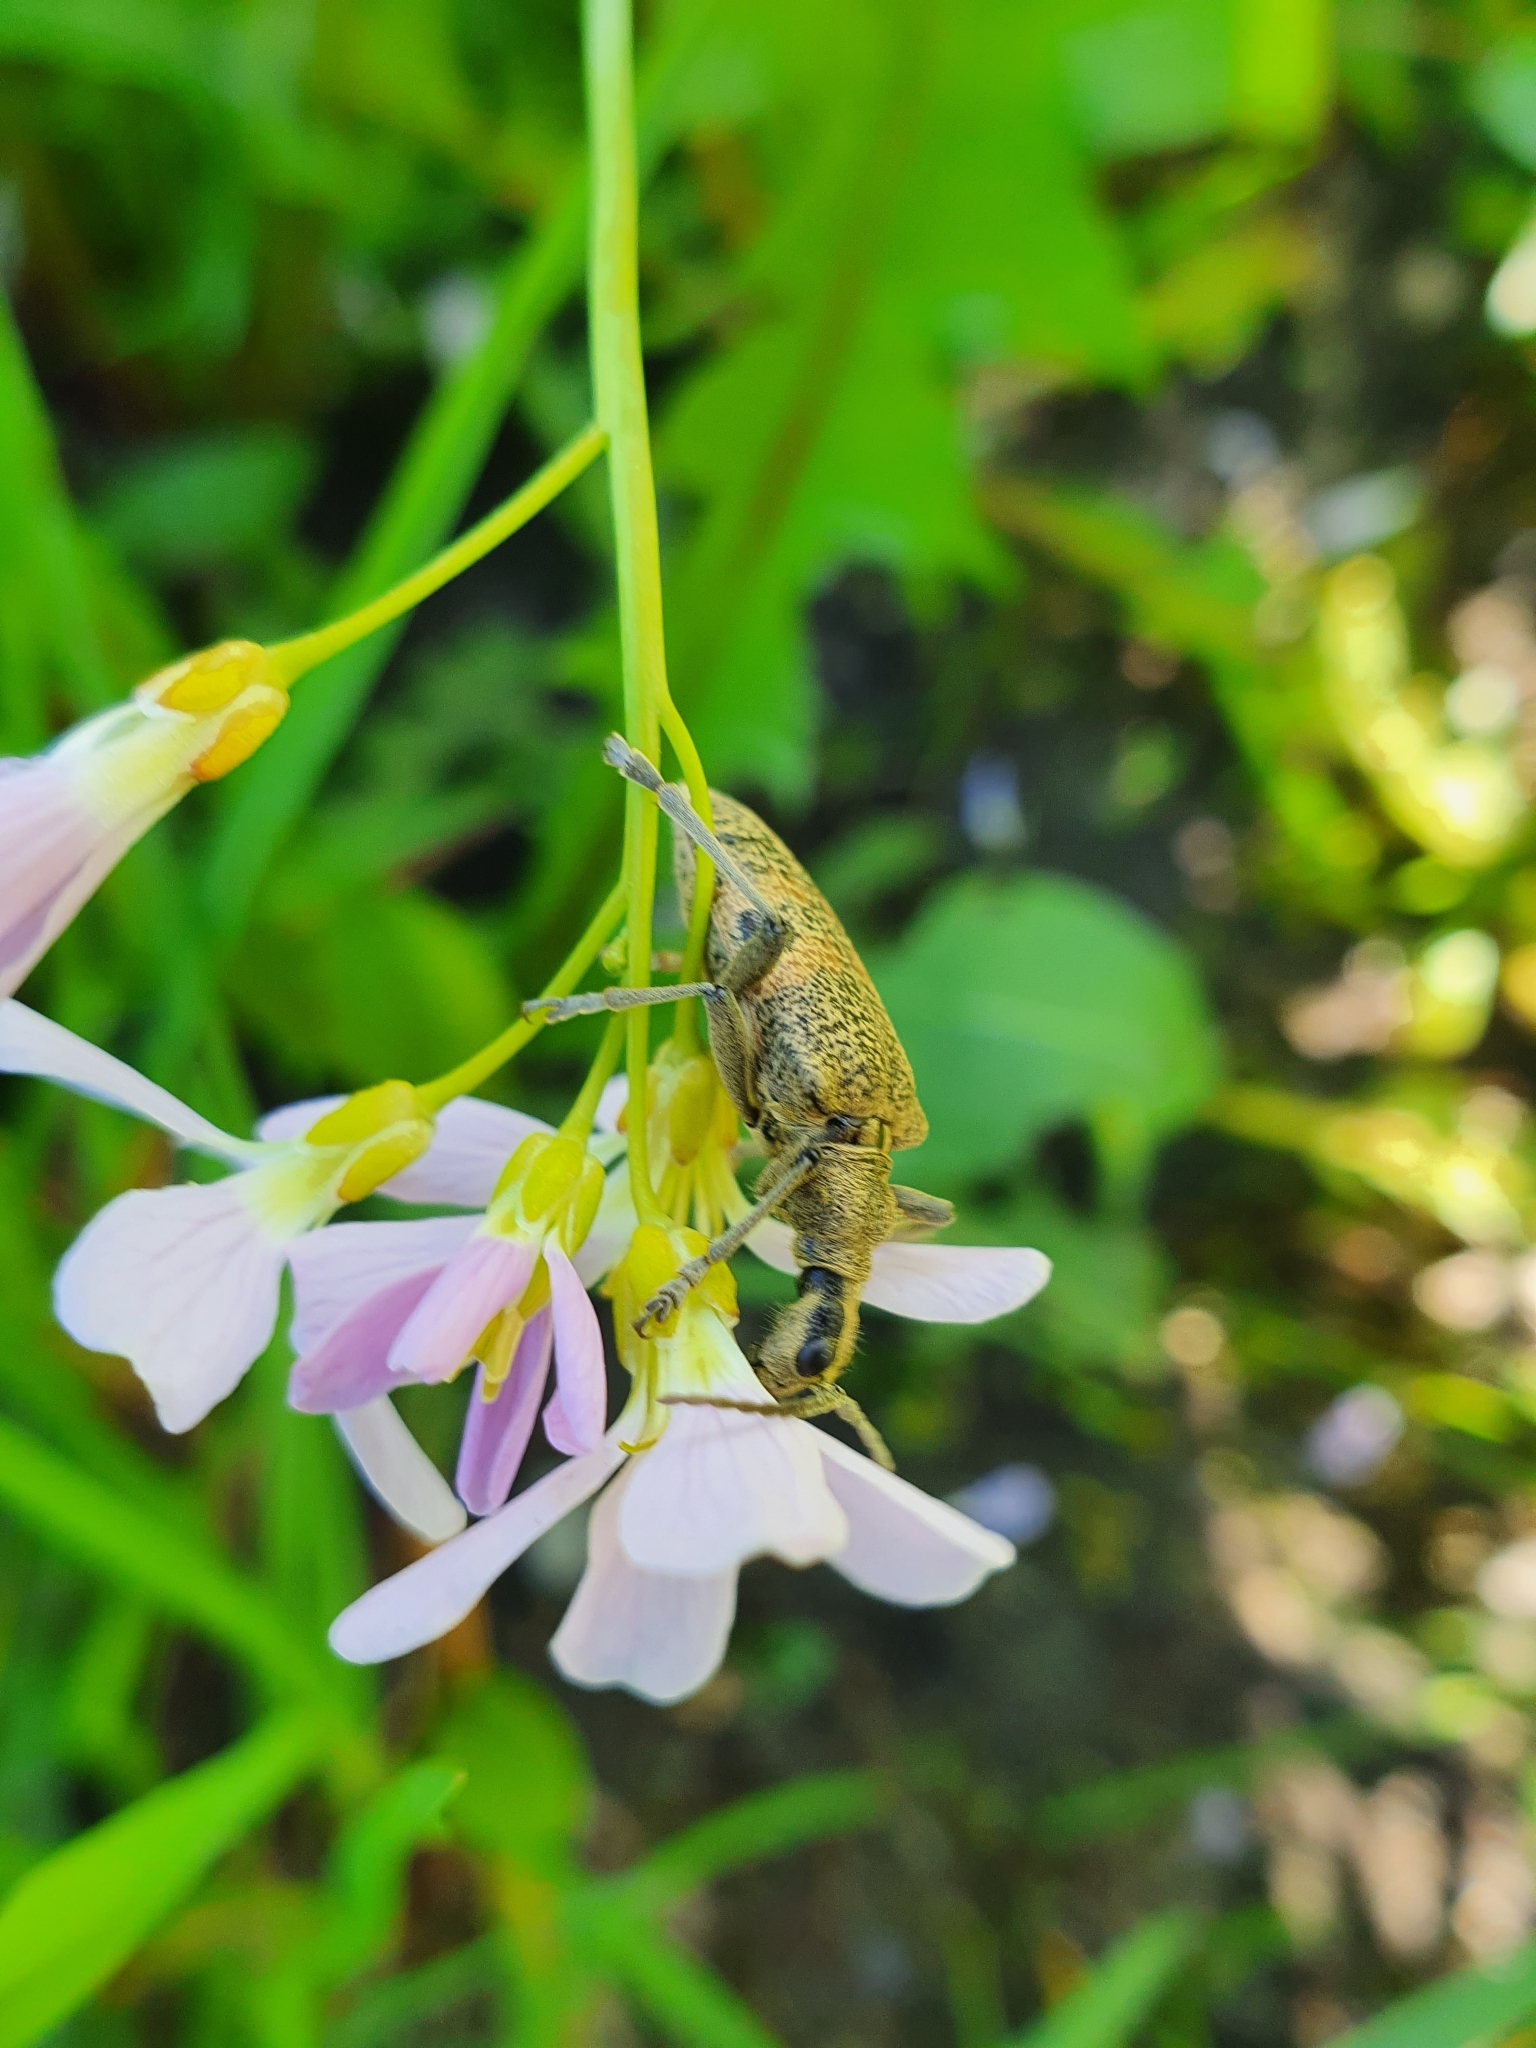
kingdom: Animalia
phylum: Arthropoda
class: Insecta
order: Coleoptera
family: Cerambycidae
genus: Rhagium
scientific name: Rhagium mordax
